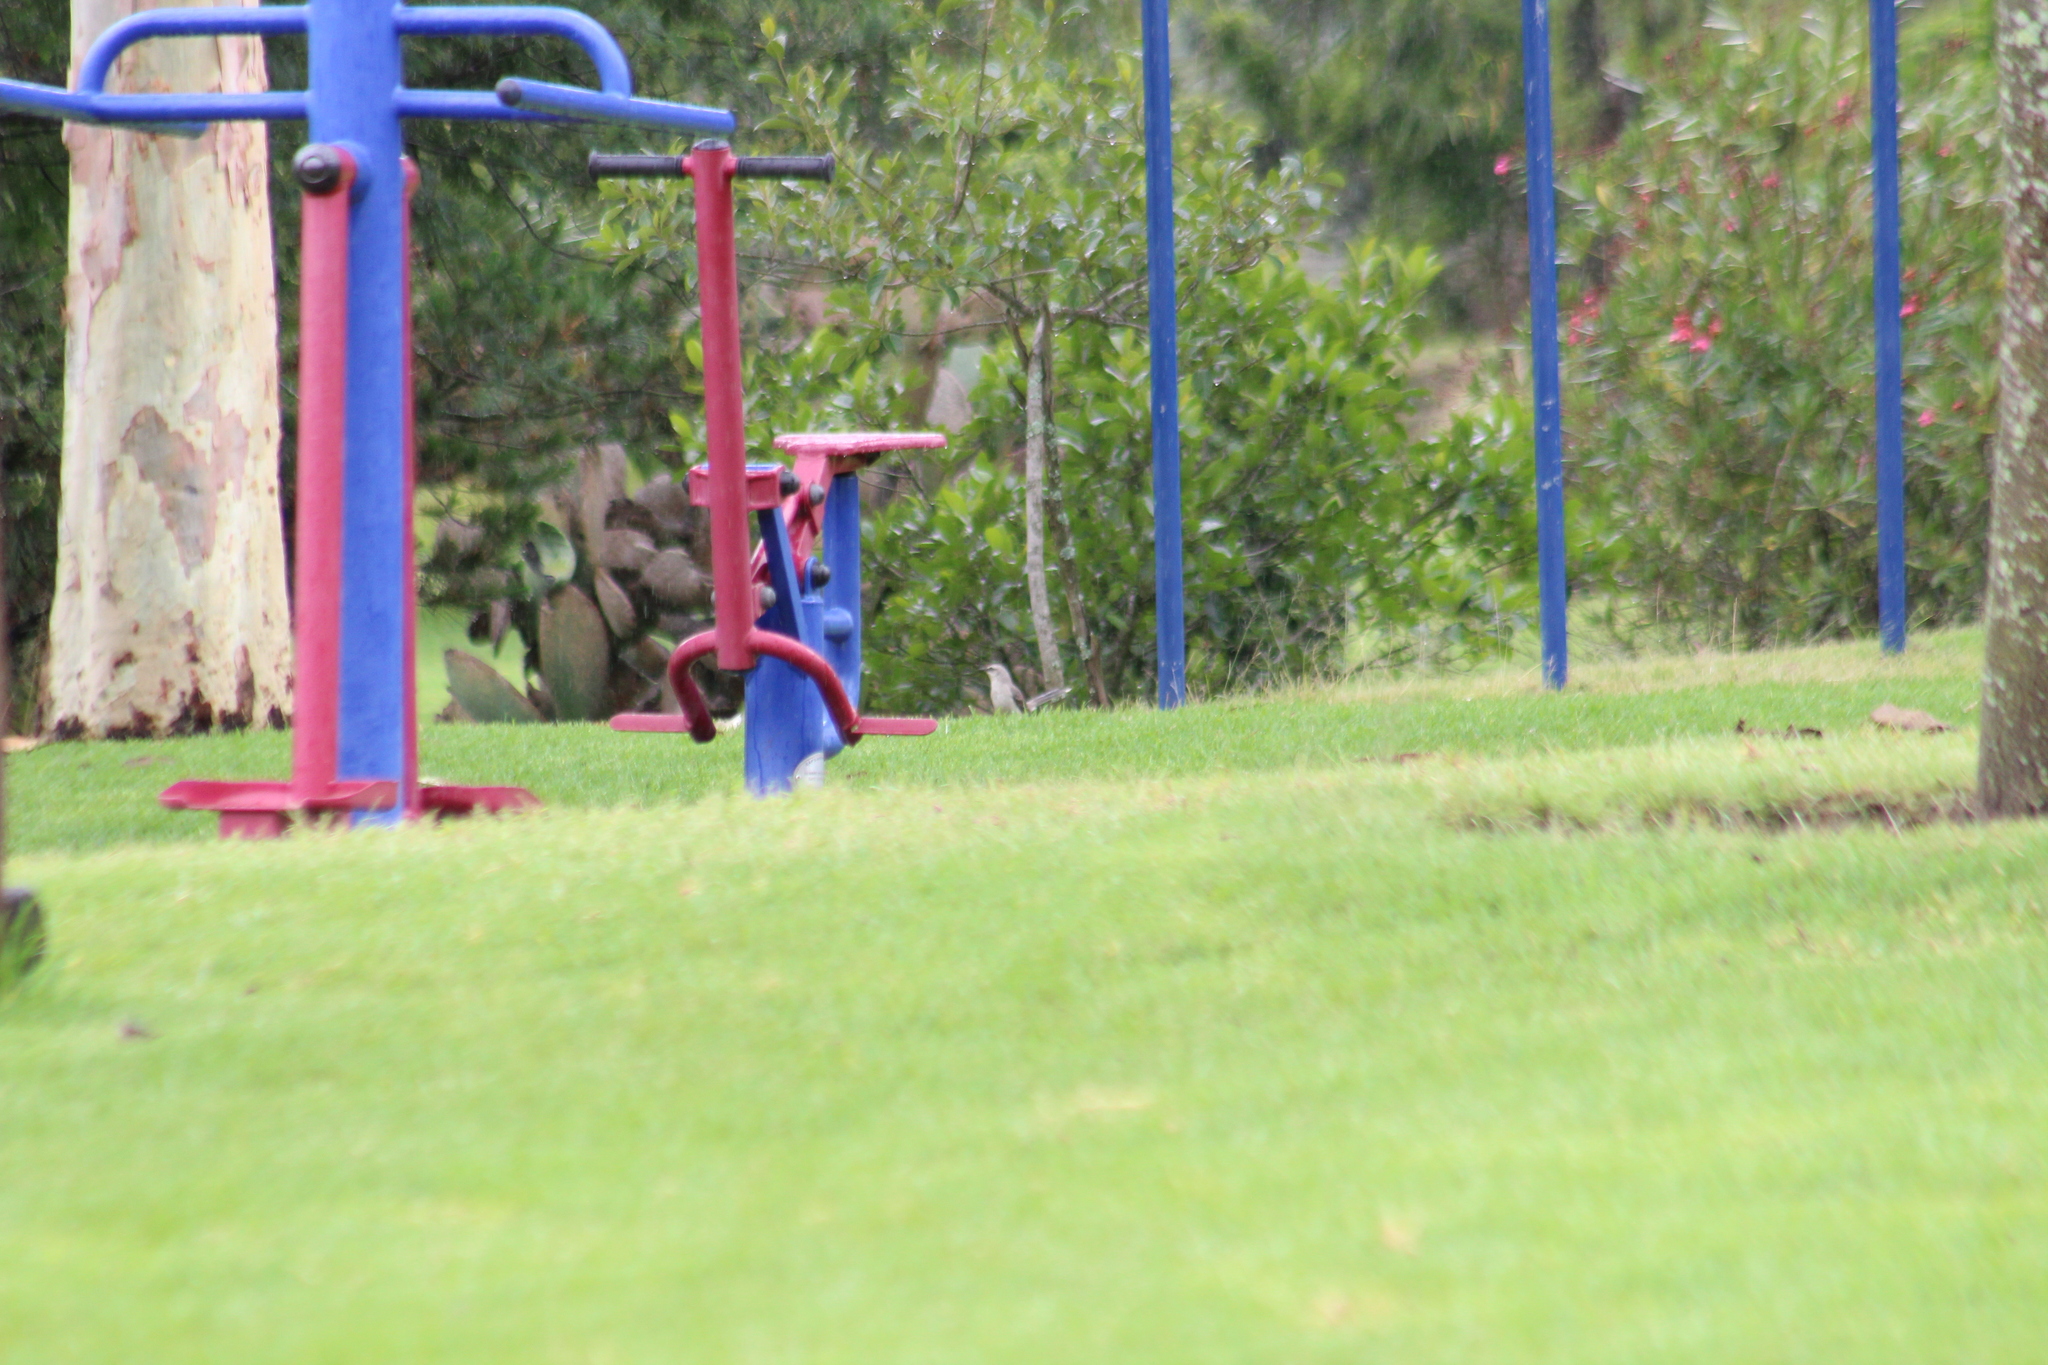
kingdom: Animalia
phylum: Chordata
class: Aves
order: Passeriformes
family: Mimidae
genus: Mimus
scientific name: Mimus gilvus
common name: Tropical mockingbird
